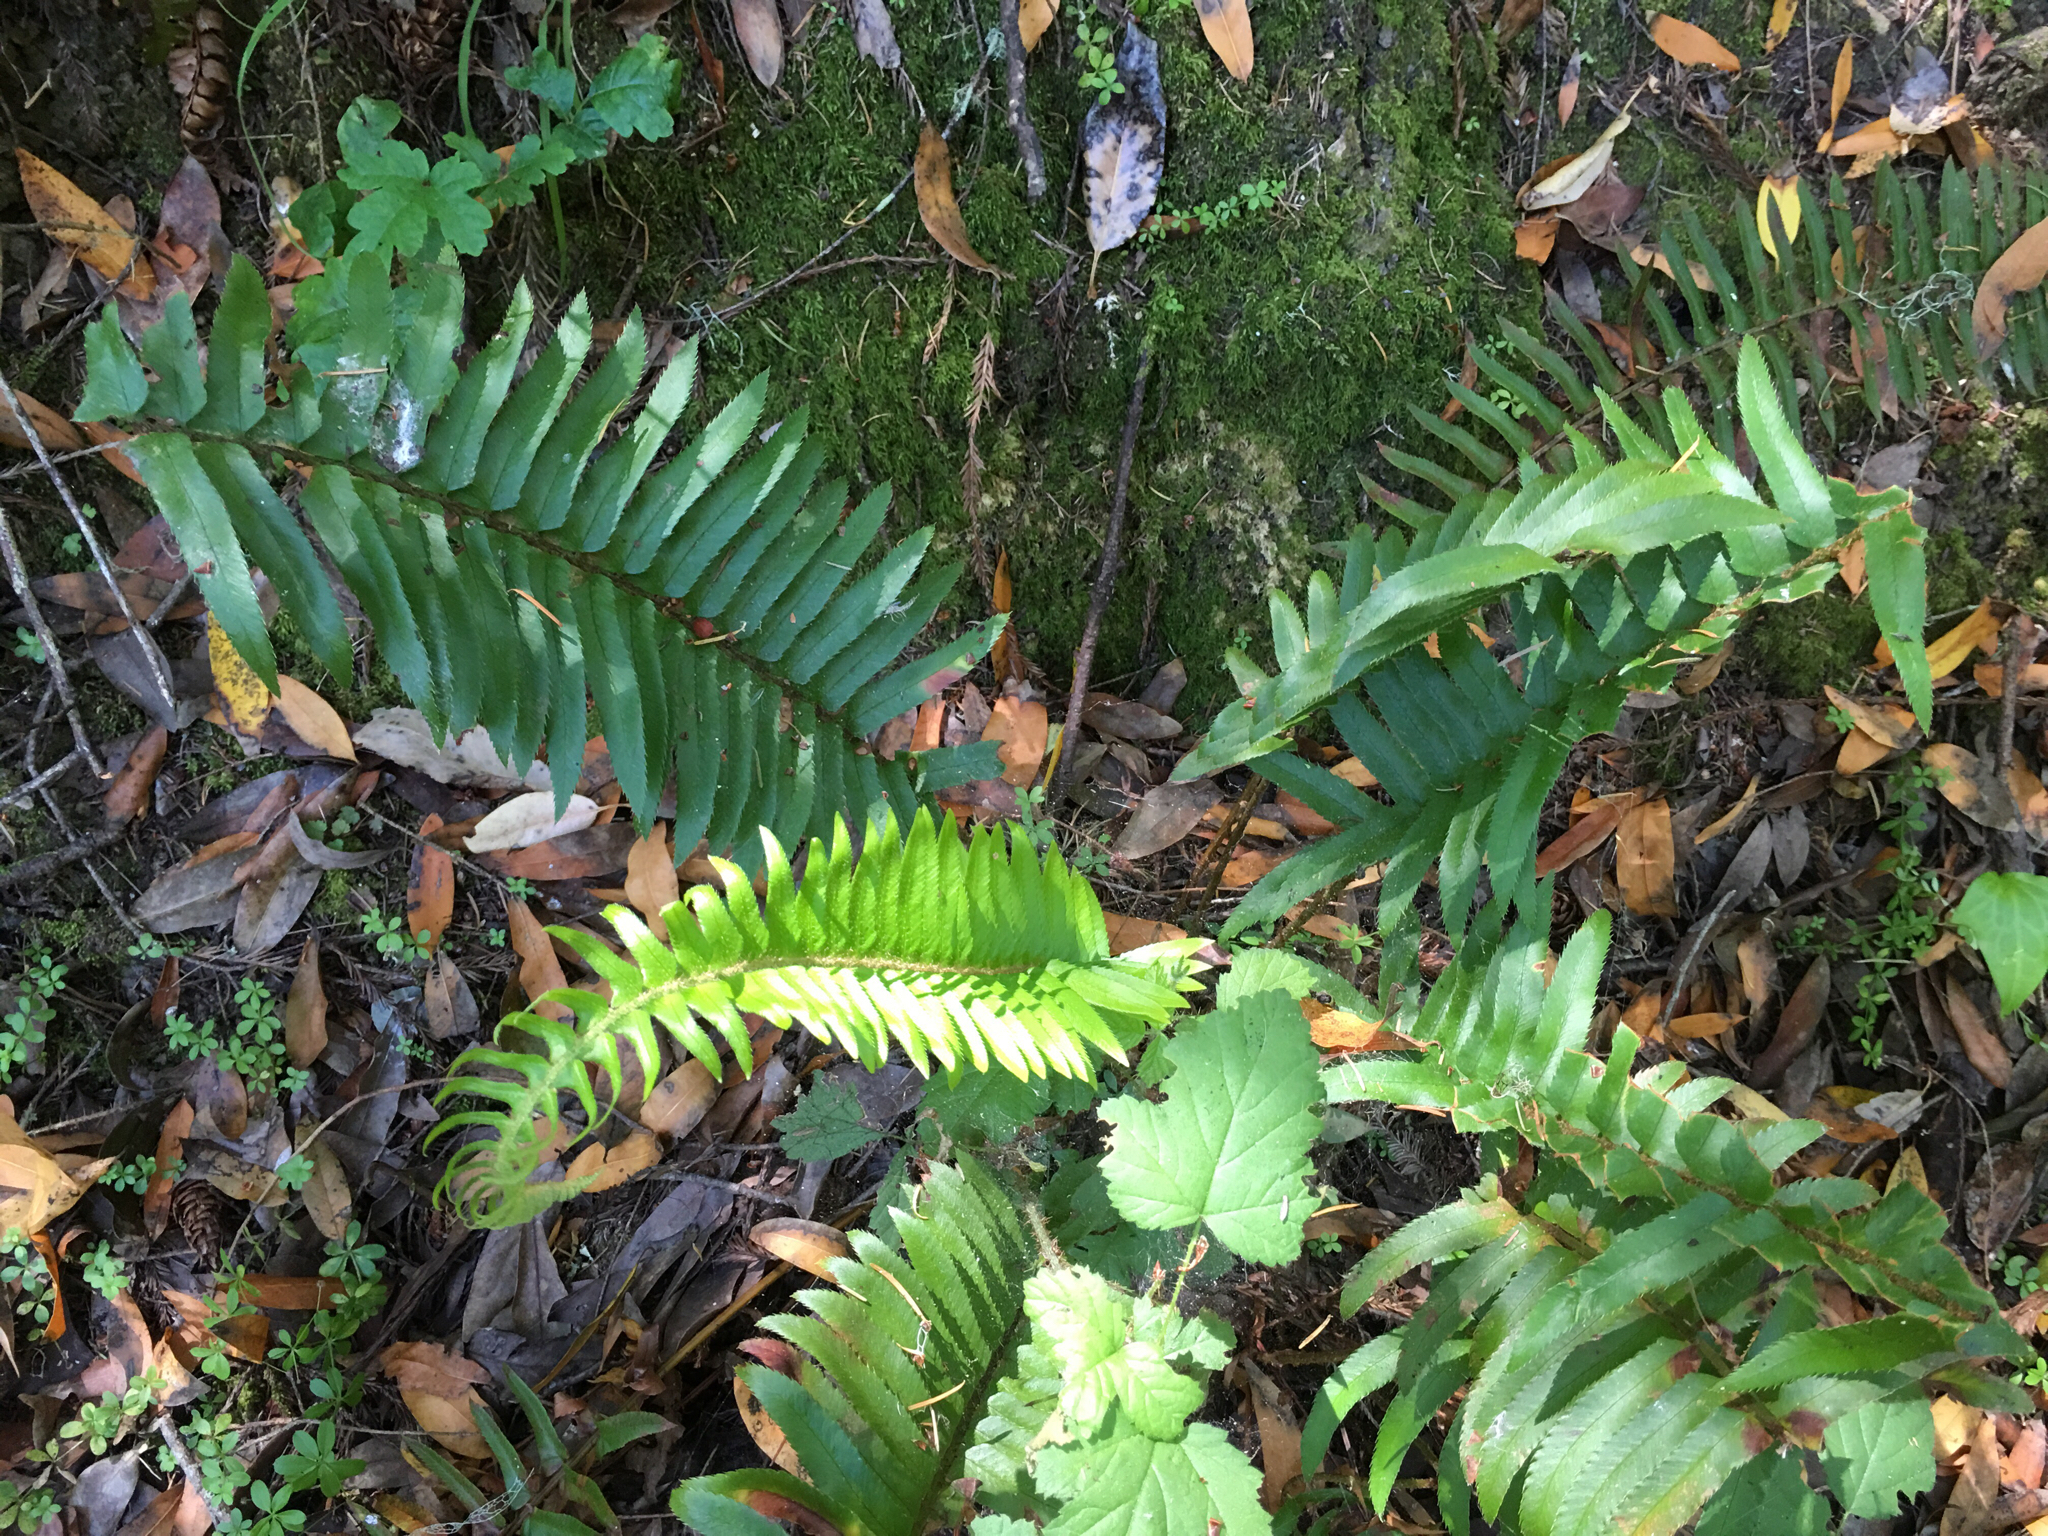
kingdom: Plantae
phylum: Tracheophyta
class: Polypodiopsida
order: Polypodiales
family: Dryopteridaceae
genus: Polystichum
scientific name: Polystichum munitum
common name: Western sword-fern
